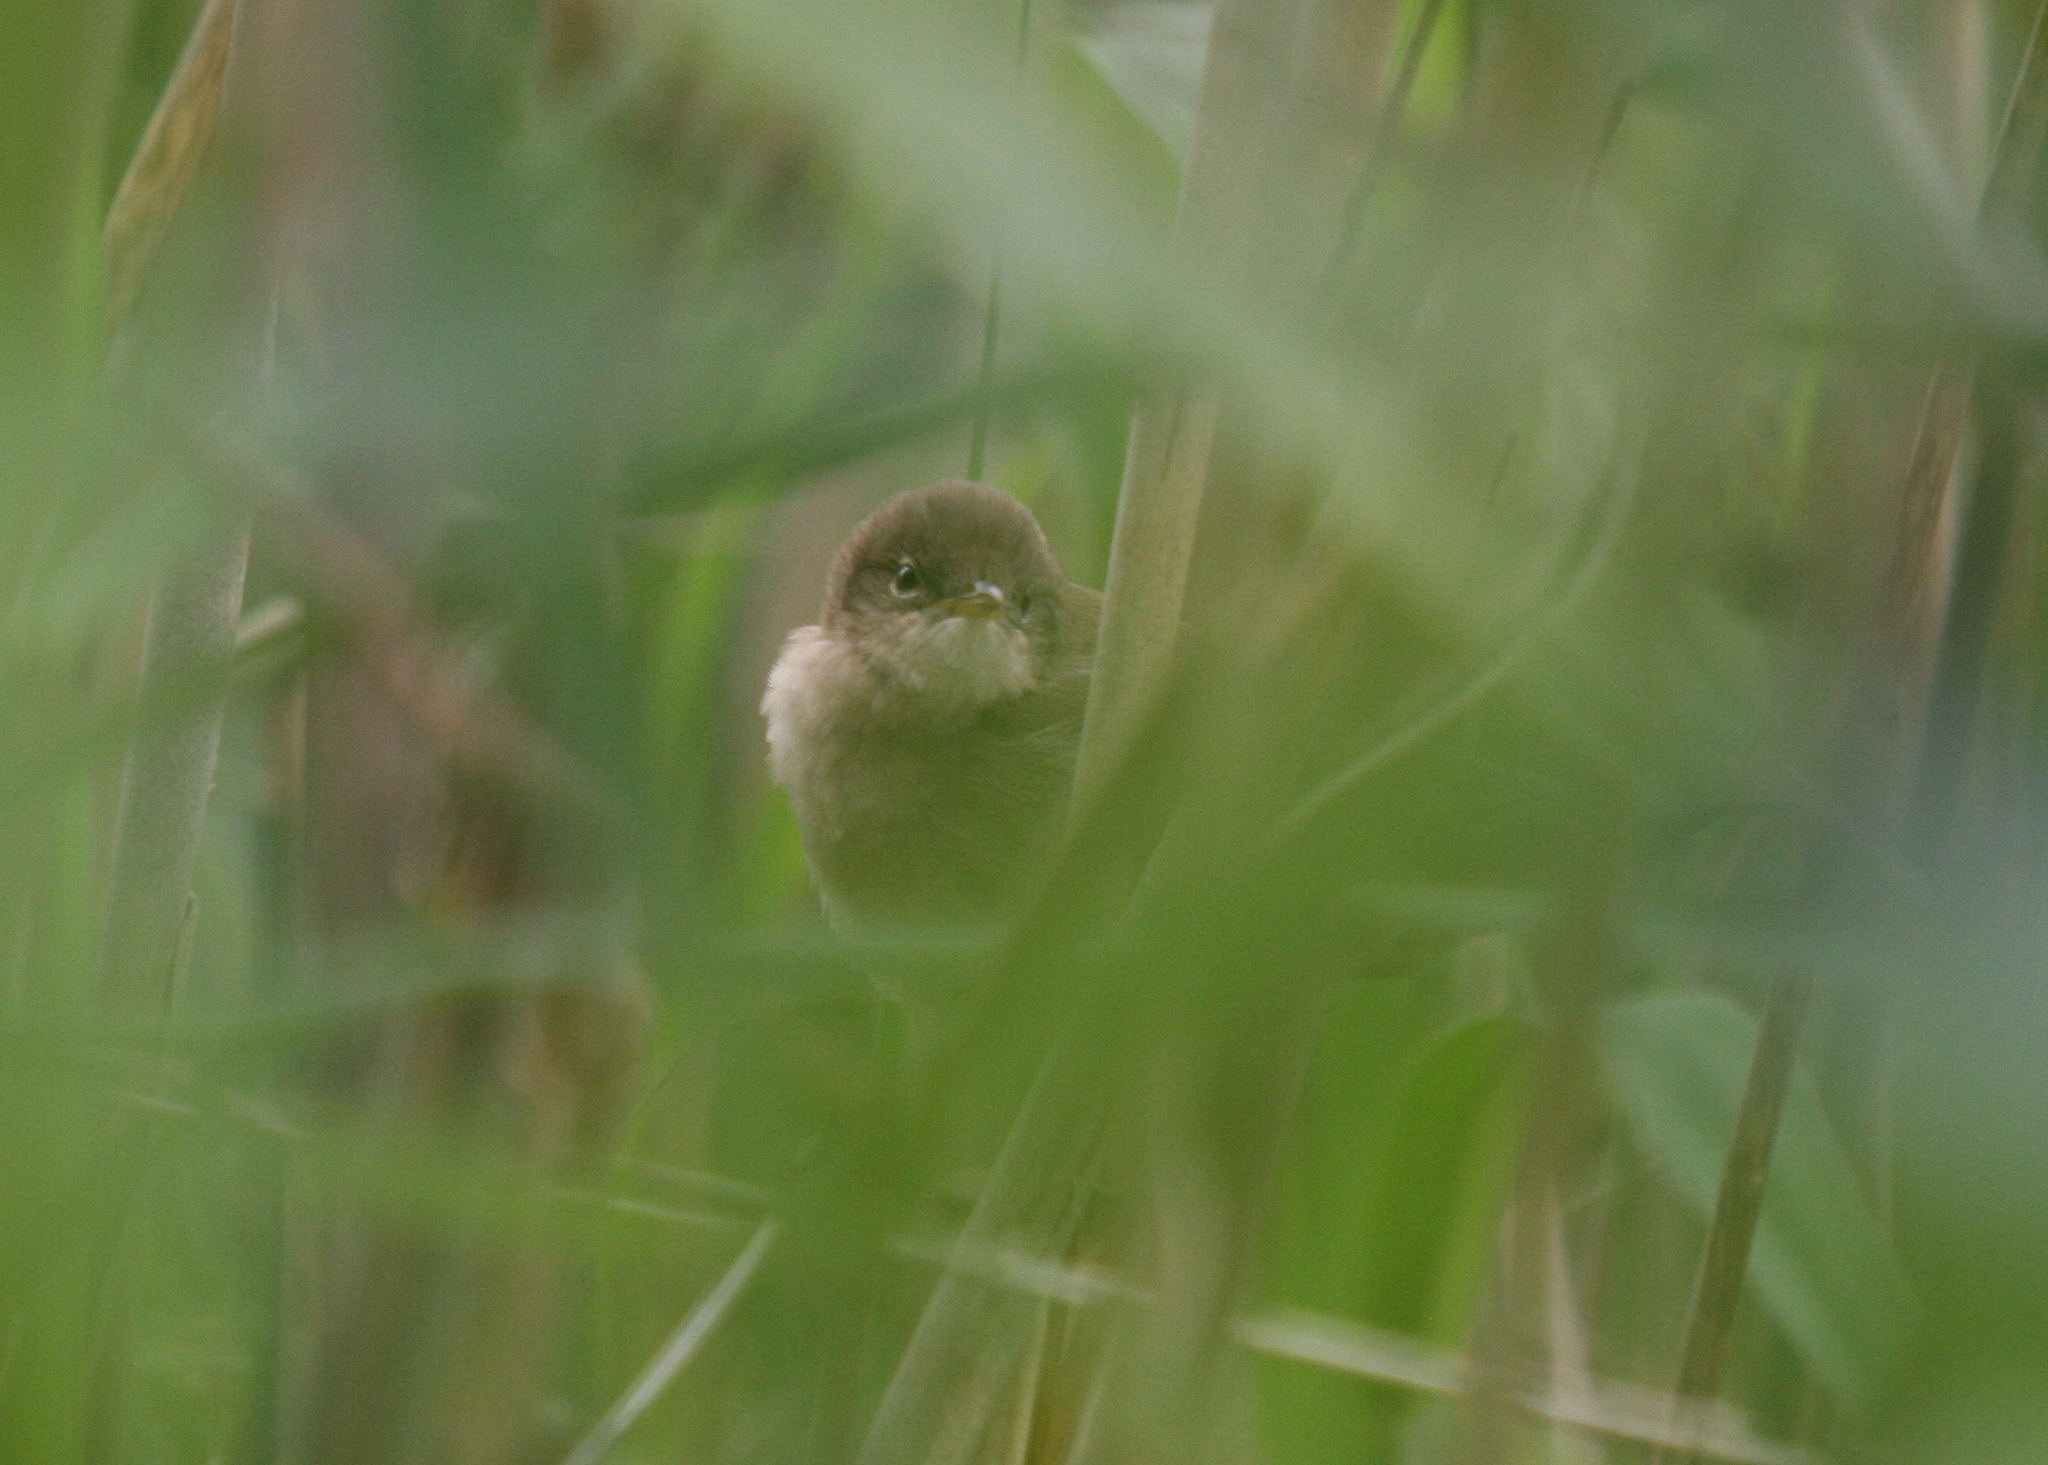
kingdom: Animalia
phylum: Chordata
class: Aves
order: Passeriformes
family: Locustellidae
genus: Locustella
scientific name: Locustella luscinioides
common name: Savi's warbler
